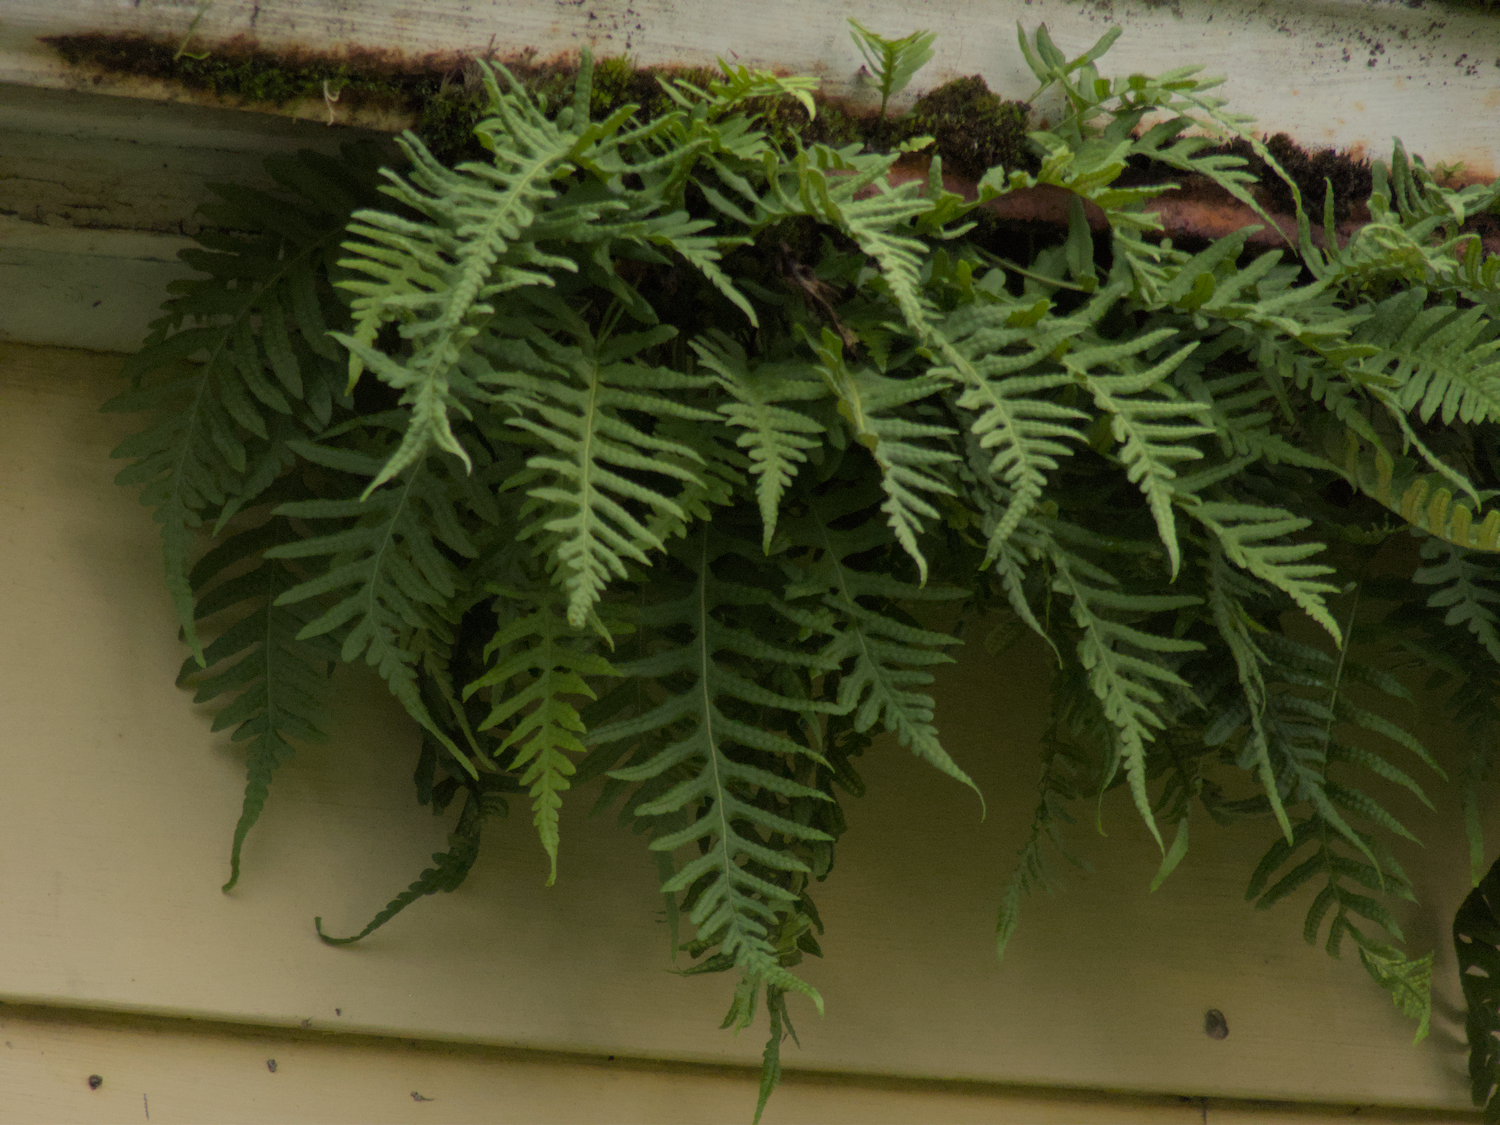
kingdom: Plantae
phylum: Tracheophyta
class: Polypodiopsida
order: Polypodiales
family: Polypodiaceae
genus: Polypodium
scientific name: Polypodium glycyrrhiza
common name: Licorice fern
